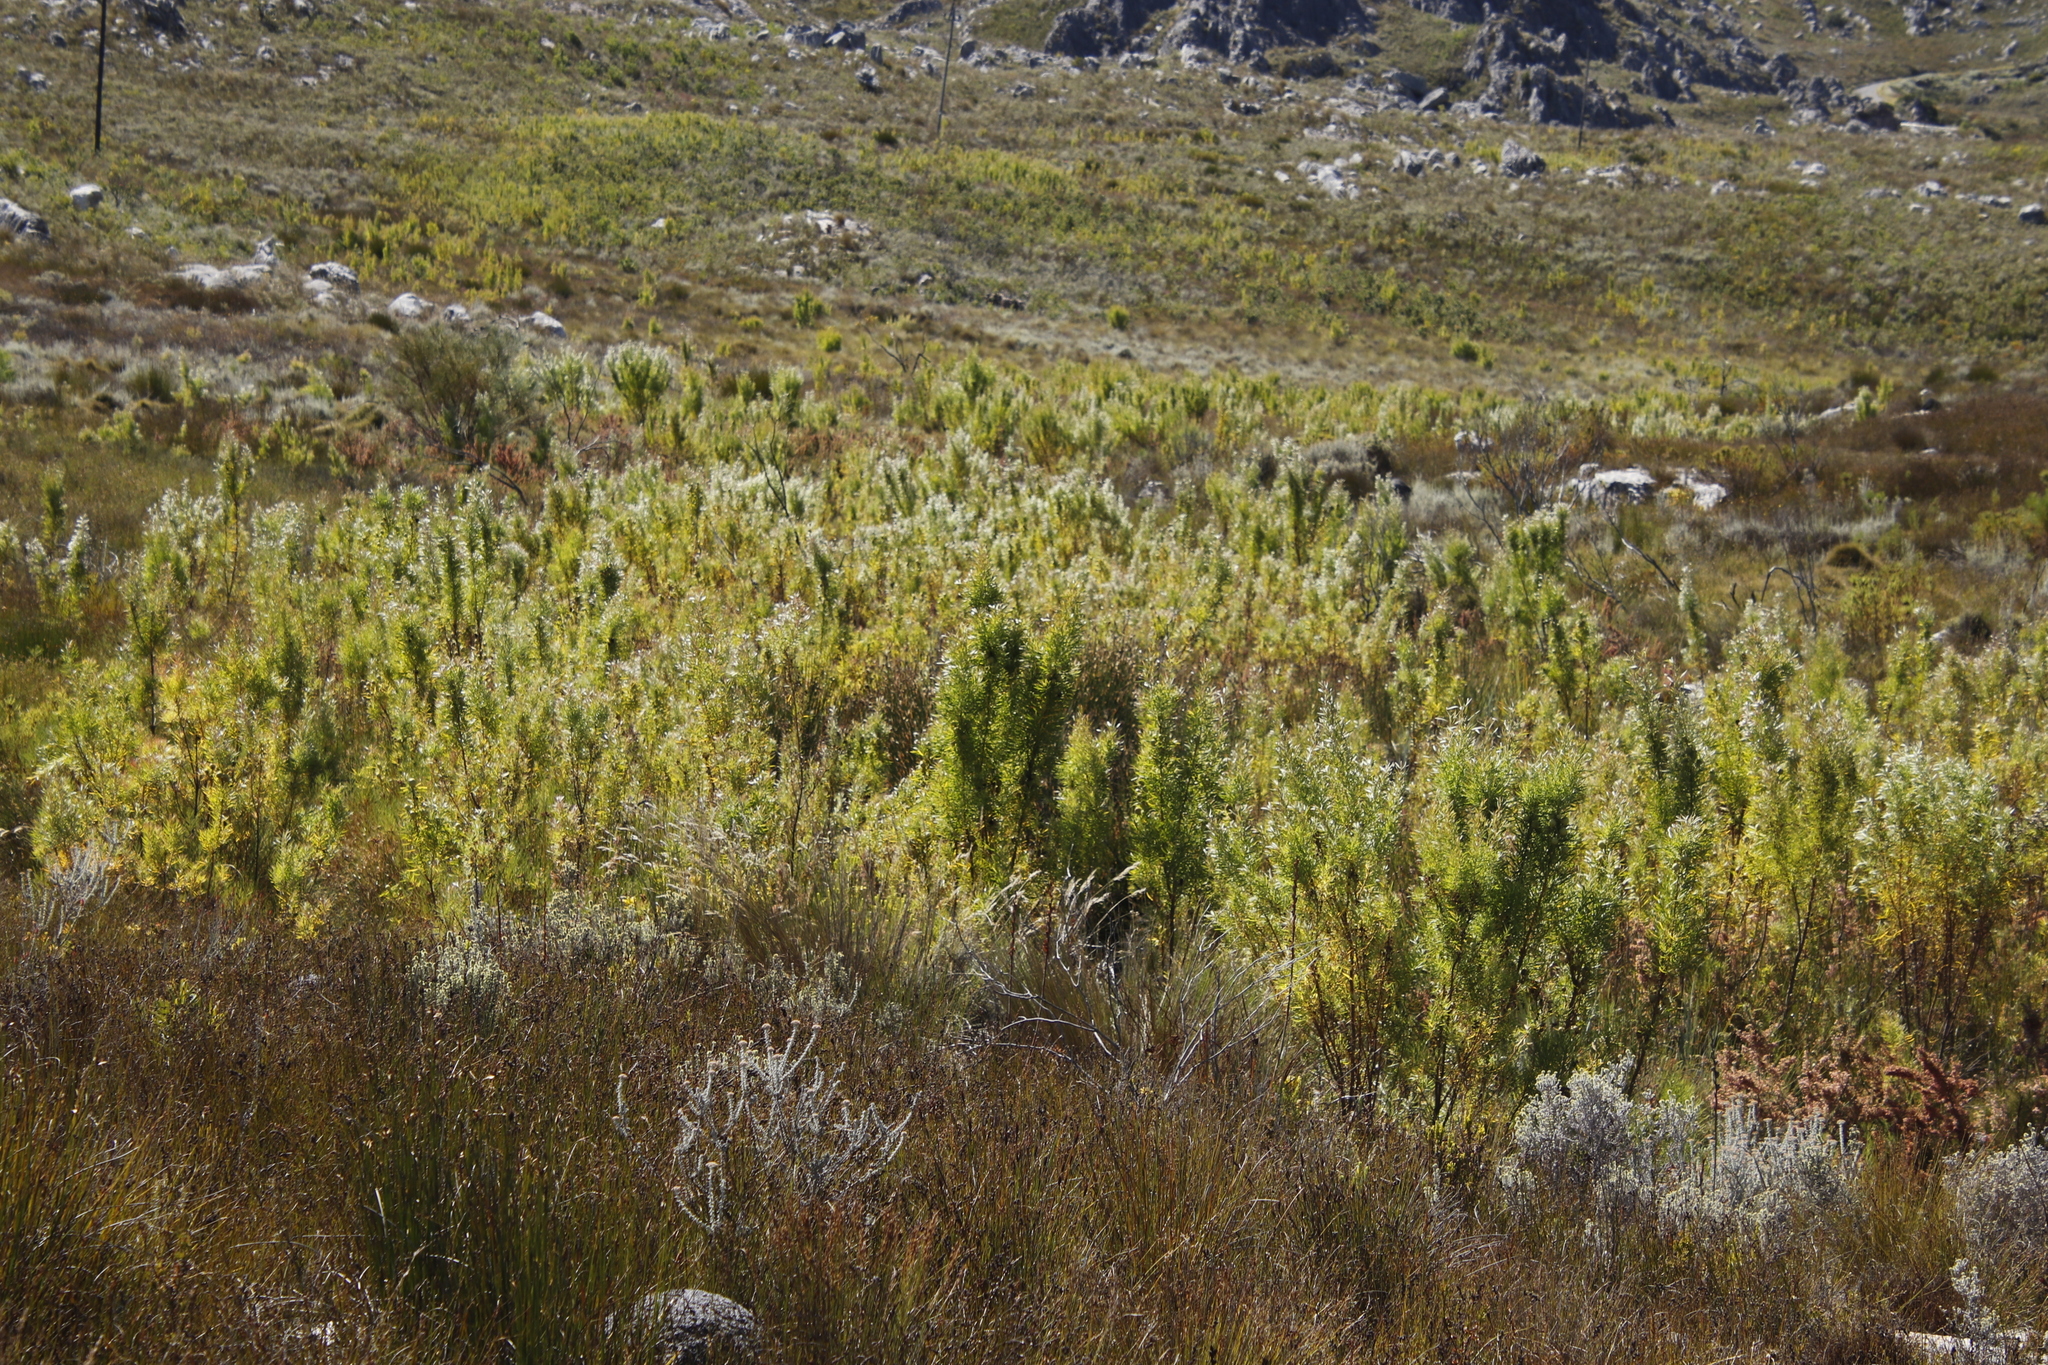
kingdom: Plantae
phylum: Tracheophyta
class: Magnoliopsida
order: Proteales
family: Proteaceae
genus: Leucadendron
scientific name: Leucadendron salicifolium
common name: Common stream conebush
